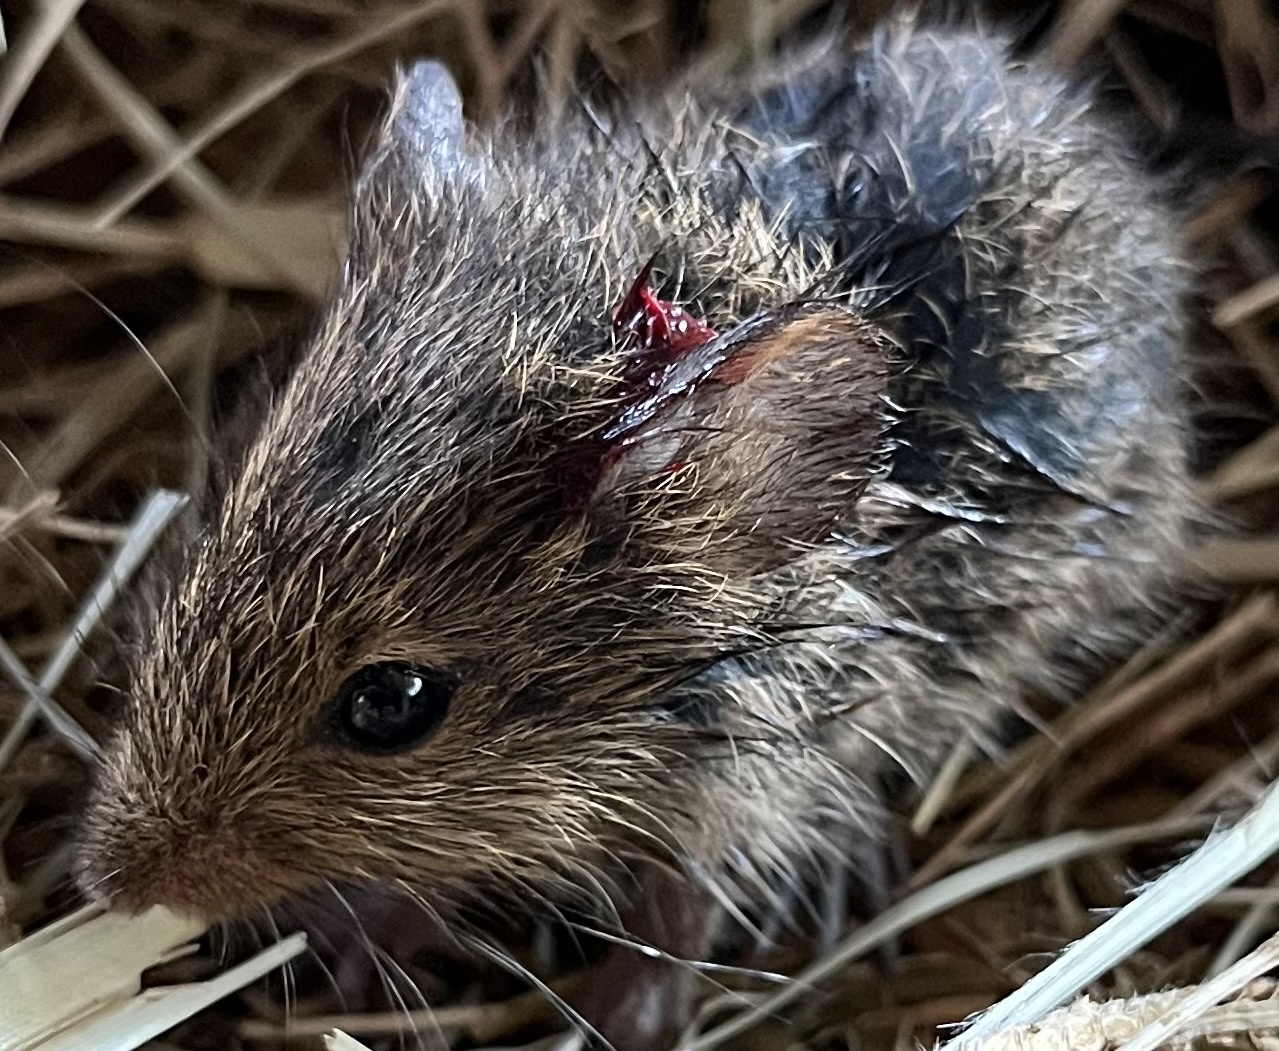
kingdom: Animalia
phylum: Chordata
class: Mammalia
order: Rodentia
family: Cricetidae
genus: Sigmodon
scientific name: Sigmodon hispidus
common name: Hispid cotton rat
